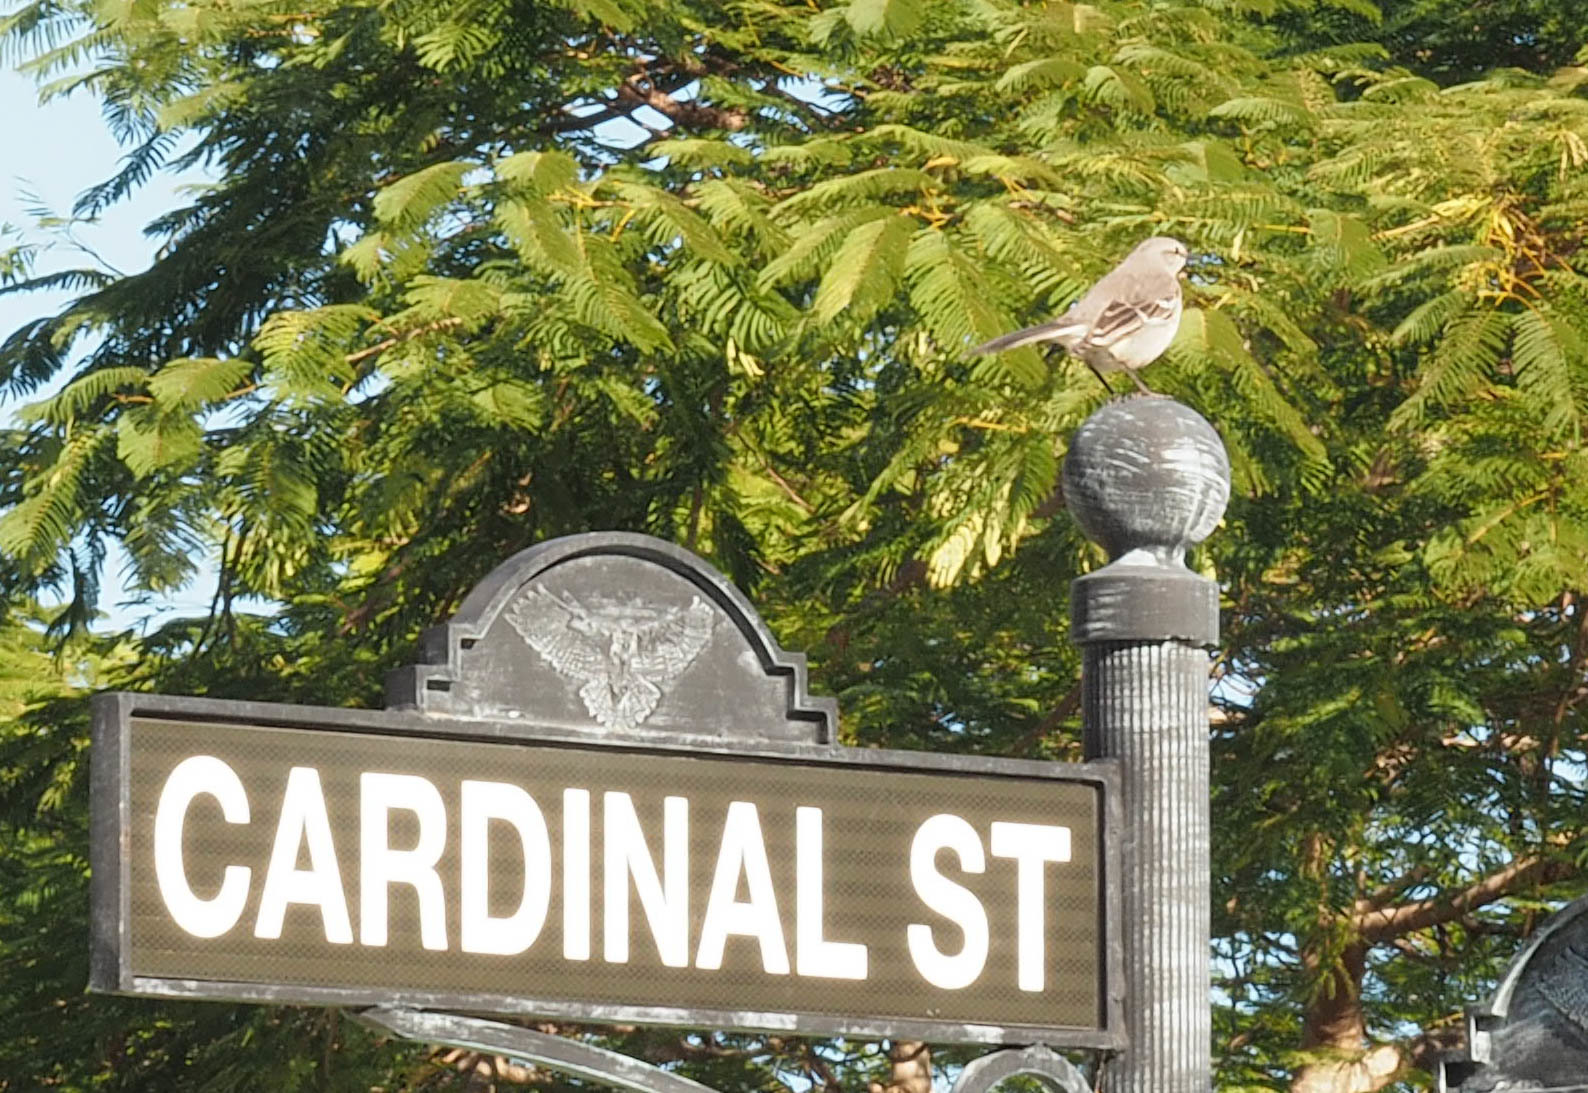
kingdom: Animalia
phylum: Chordata
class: Aves
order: Passeriformes
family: Mimidae
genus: Mimus
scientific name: Mimus polyglottos
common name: Northern mockingbird
